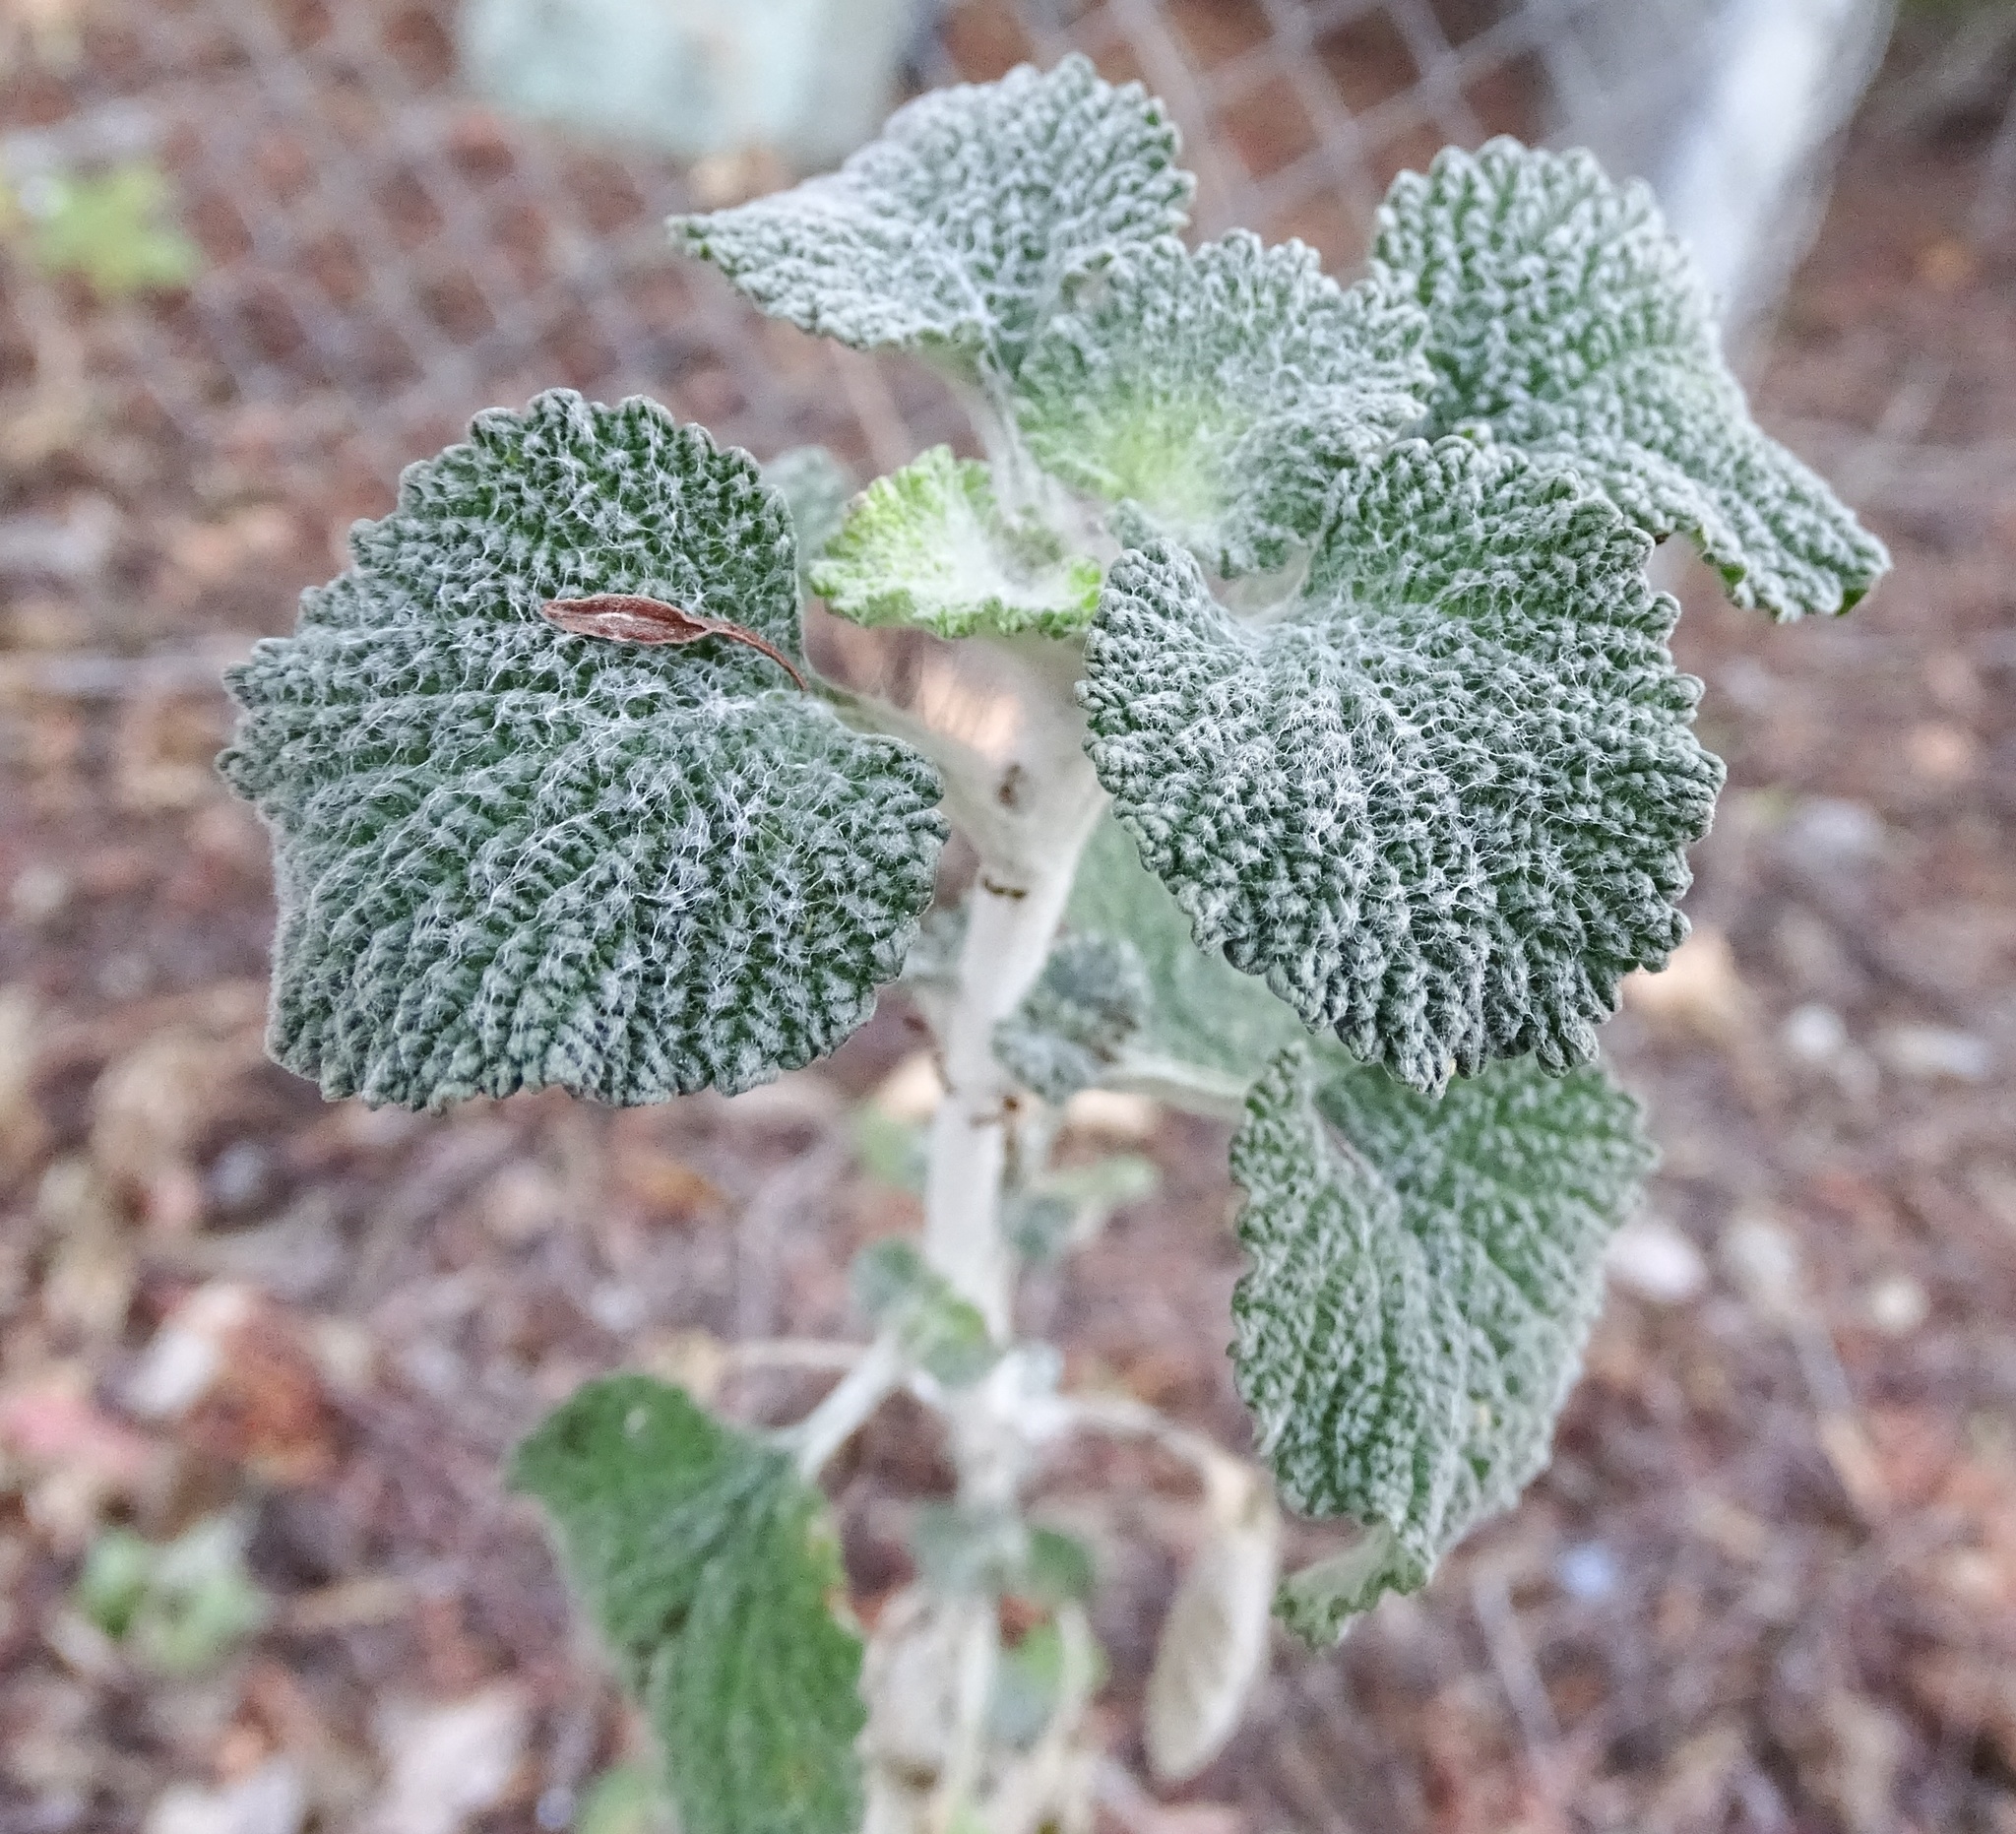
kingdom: Plantae
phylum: Tracheophyta
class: Magnoliopsida
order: Lamiales
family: Lamiaceae
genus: Marrubium
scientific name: Marrubium vulgare
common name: Horehound
